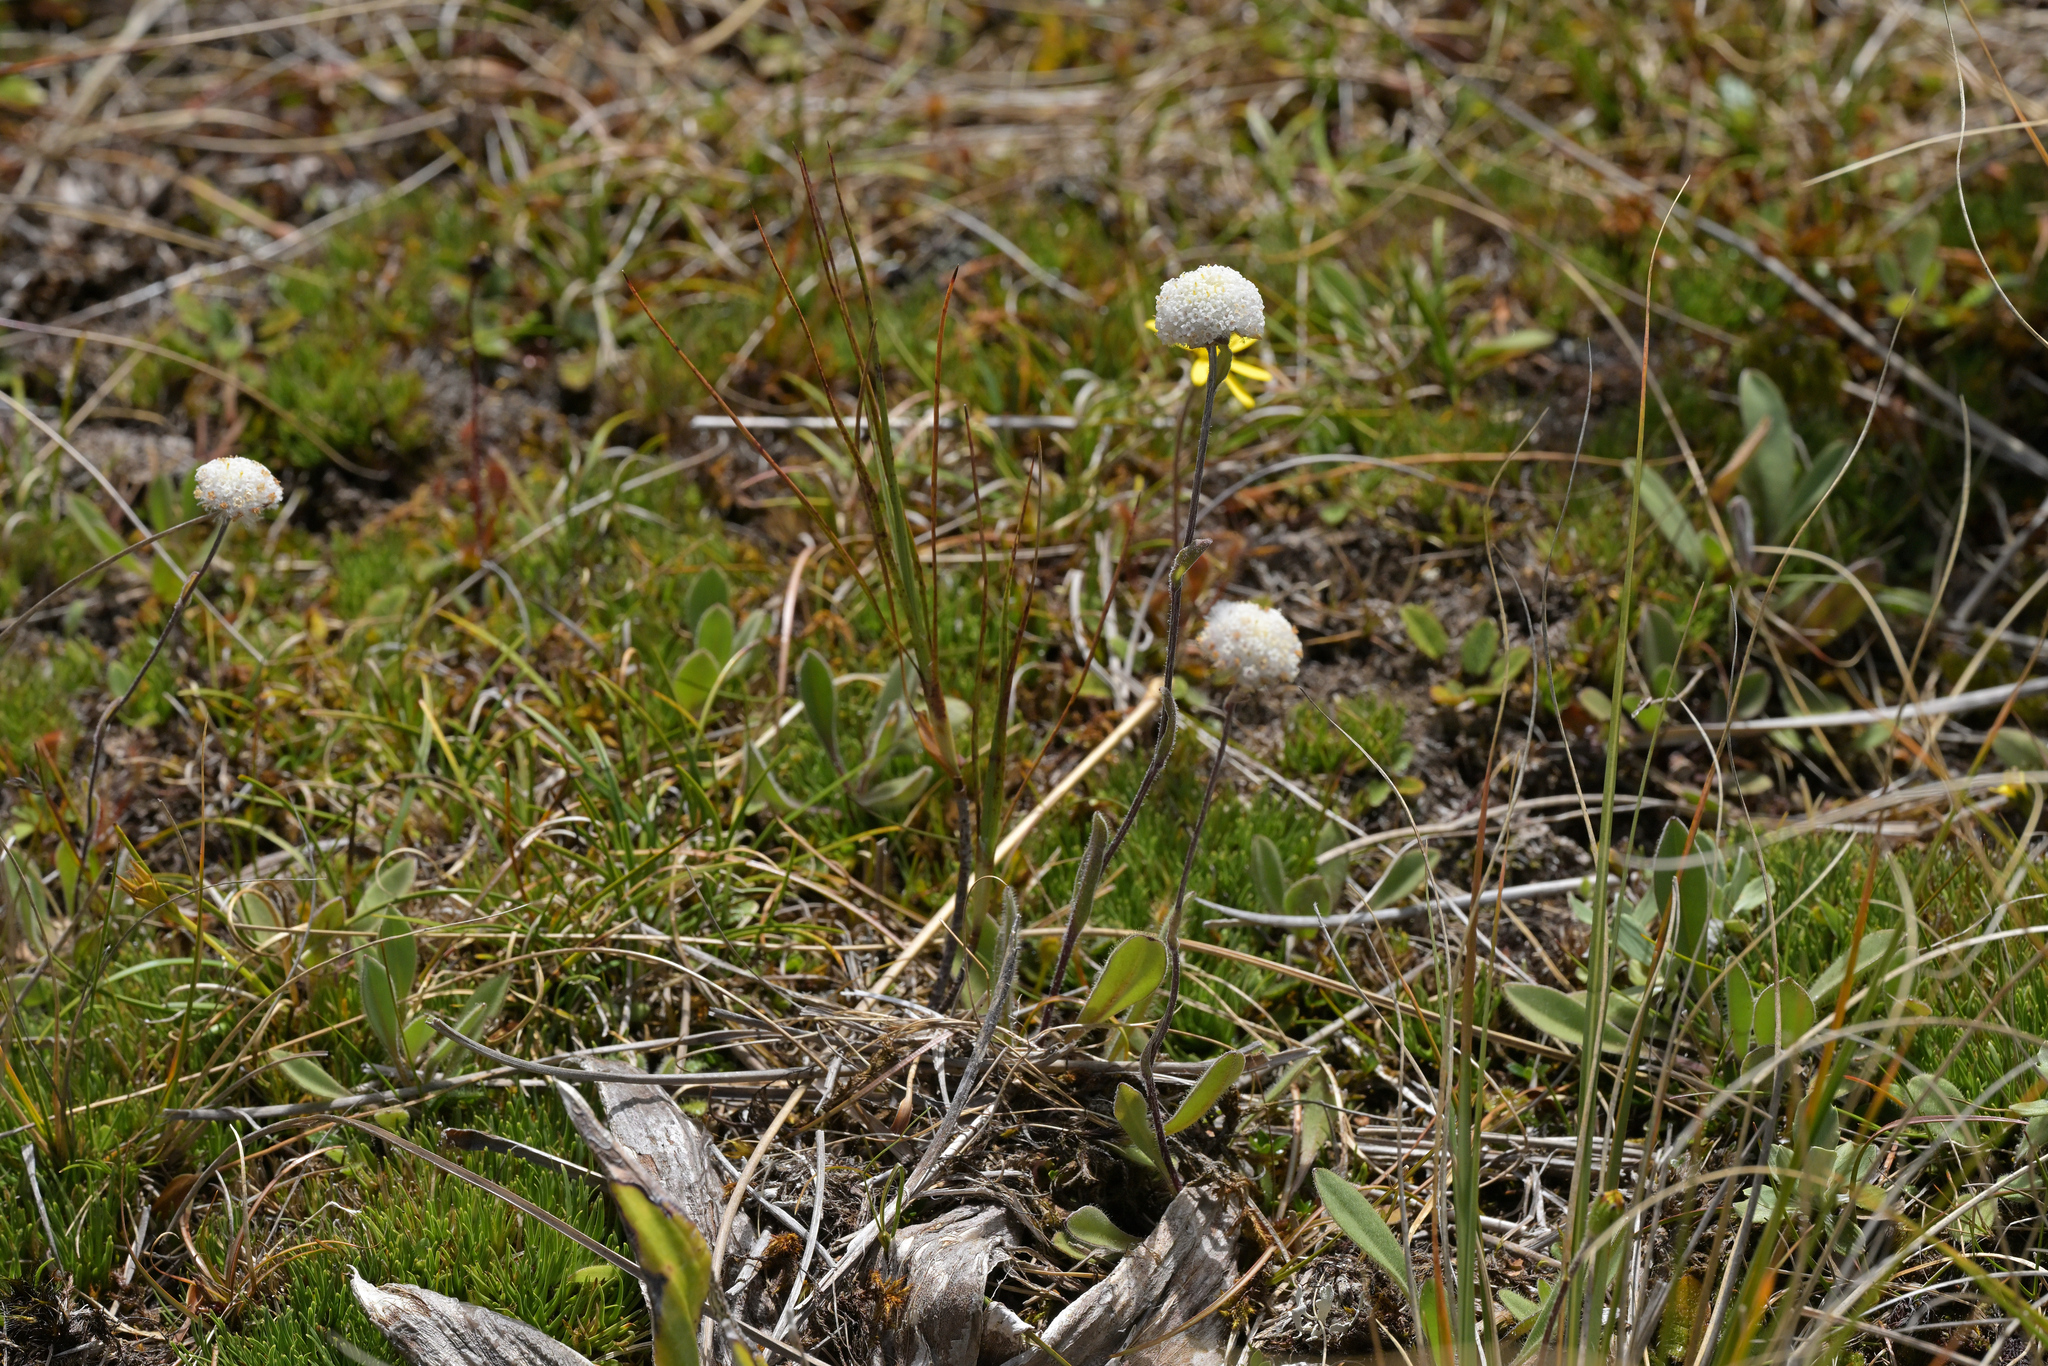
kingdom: Plantae
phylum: Tracheophyta
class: Magnoliopsida
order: Asterales
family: Asteraceae
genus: Craspedia
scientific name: Craspedia uniflora
